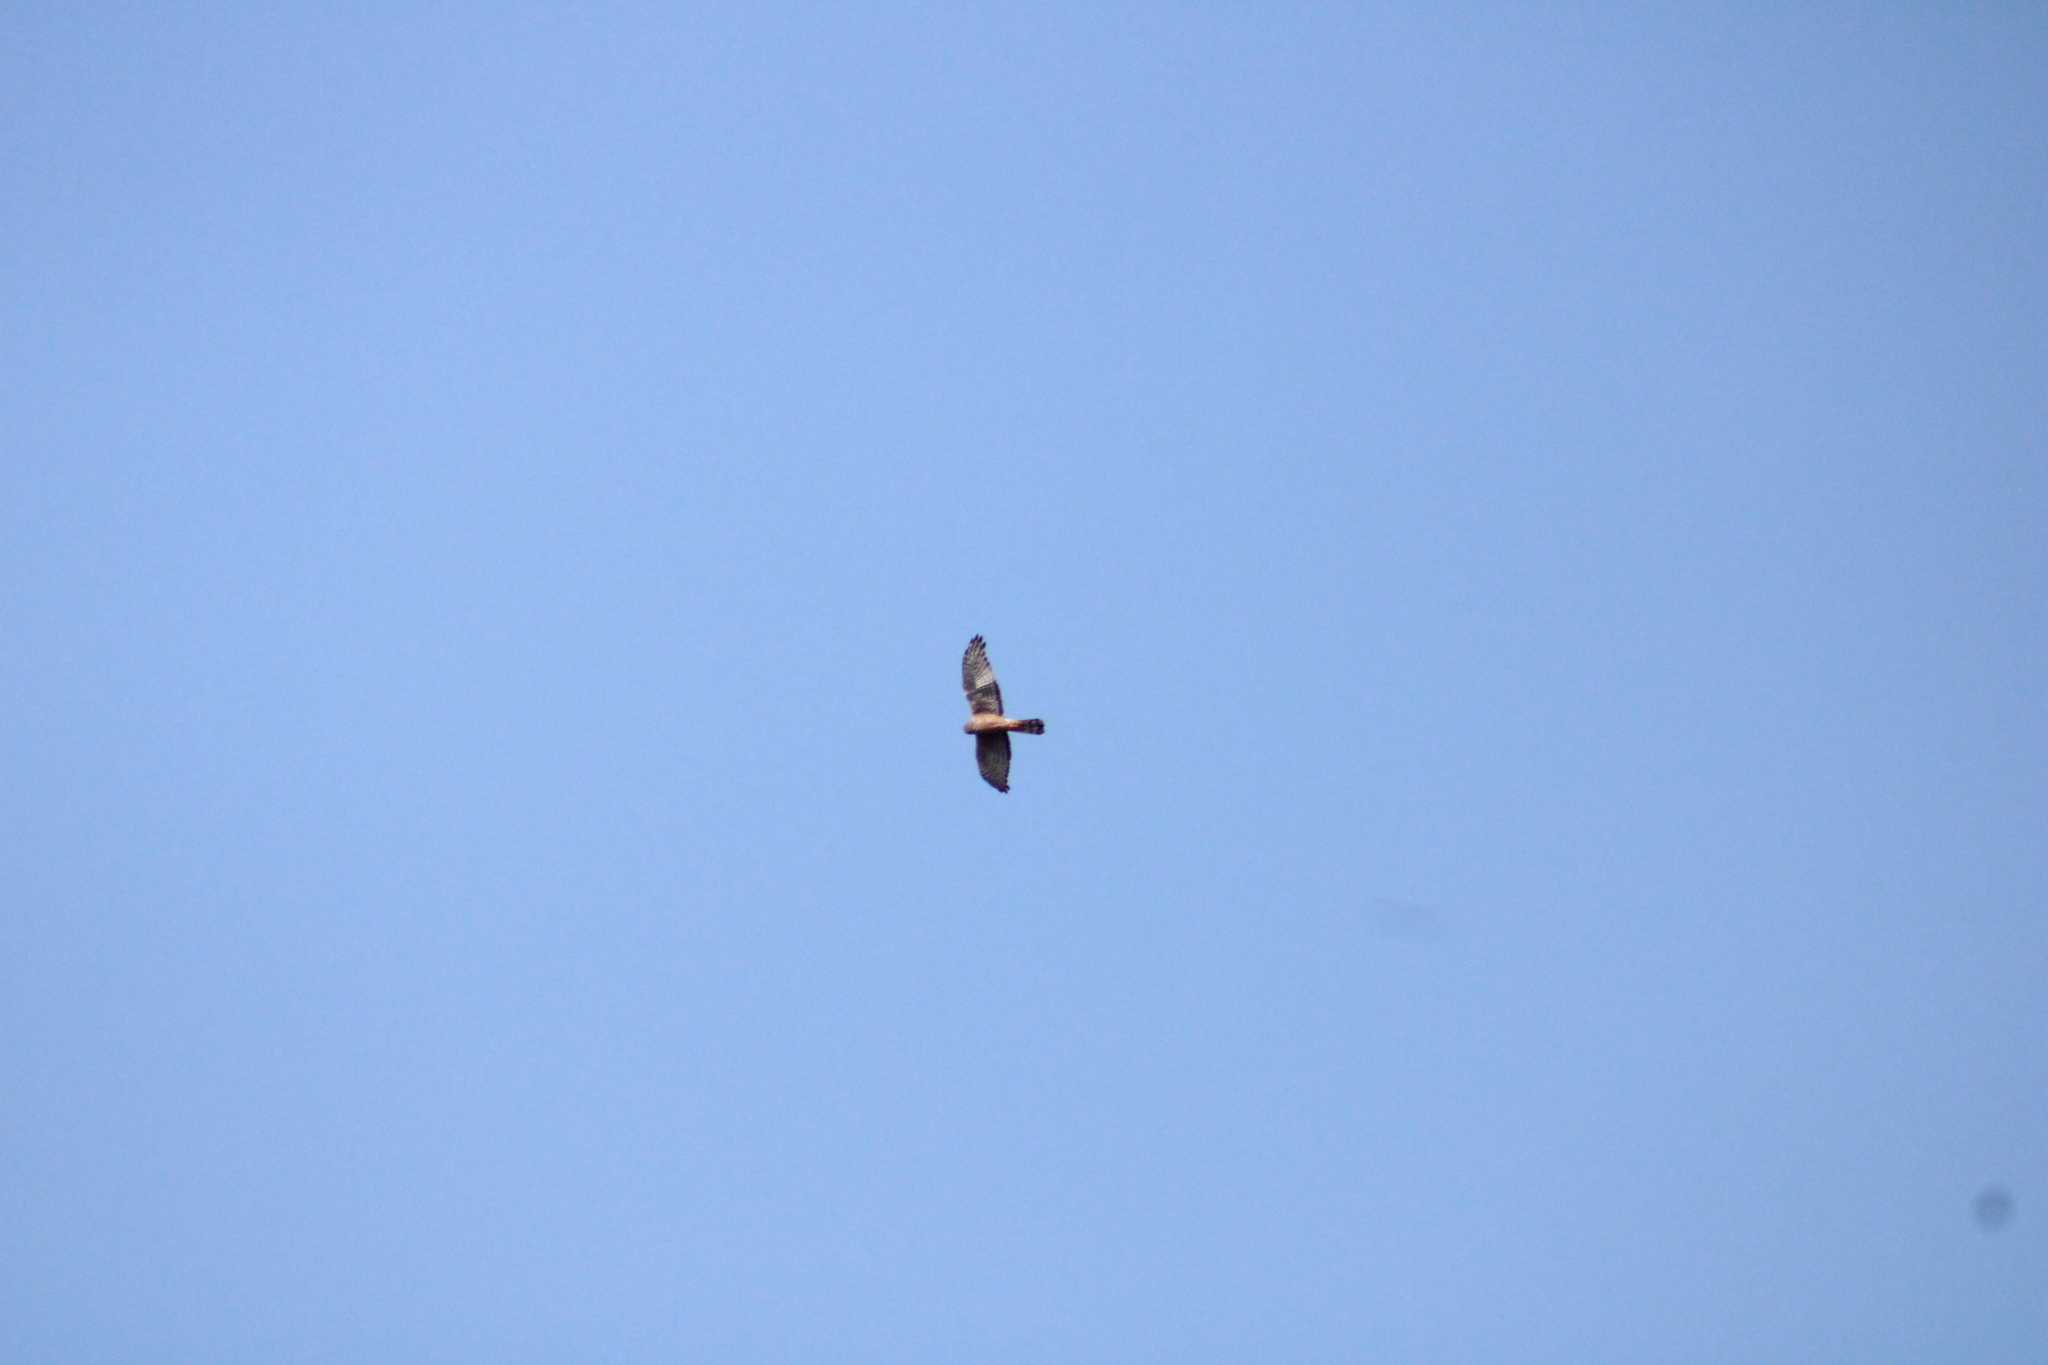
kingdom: Animalia
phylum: Chordata
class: Aves
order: Accipitriformes
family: Accipitridae
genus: Circus
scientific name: Circus cinereus
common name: Cinereous harrier
